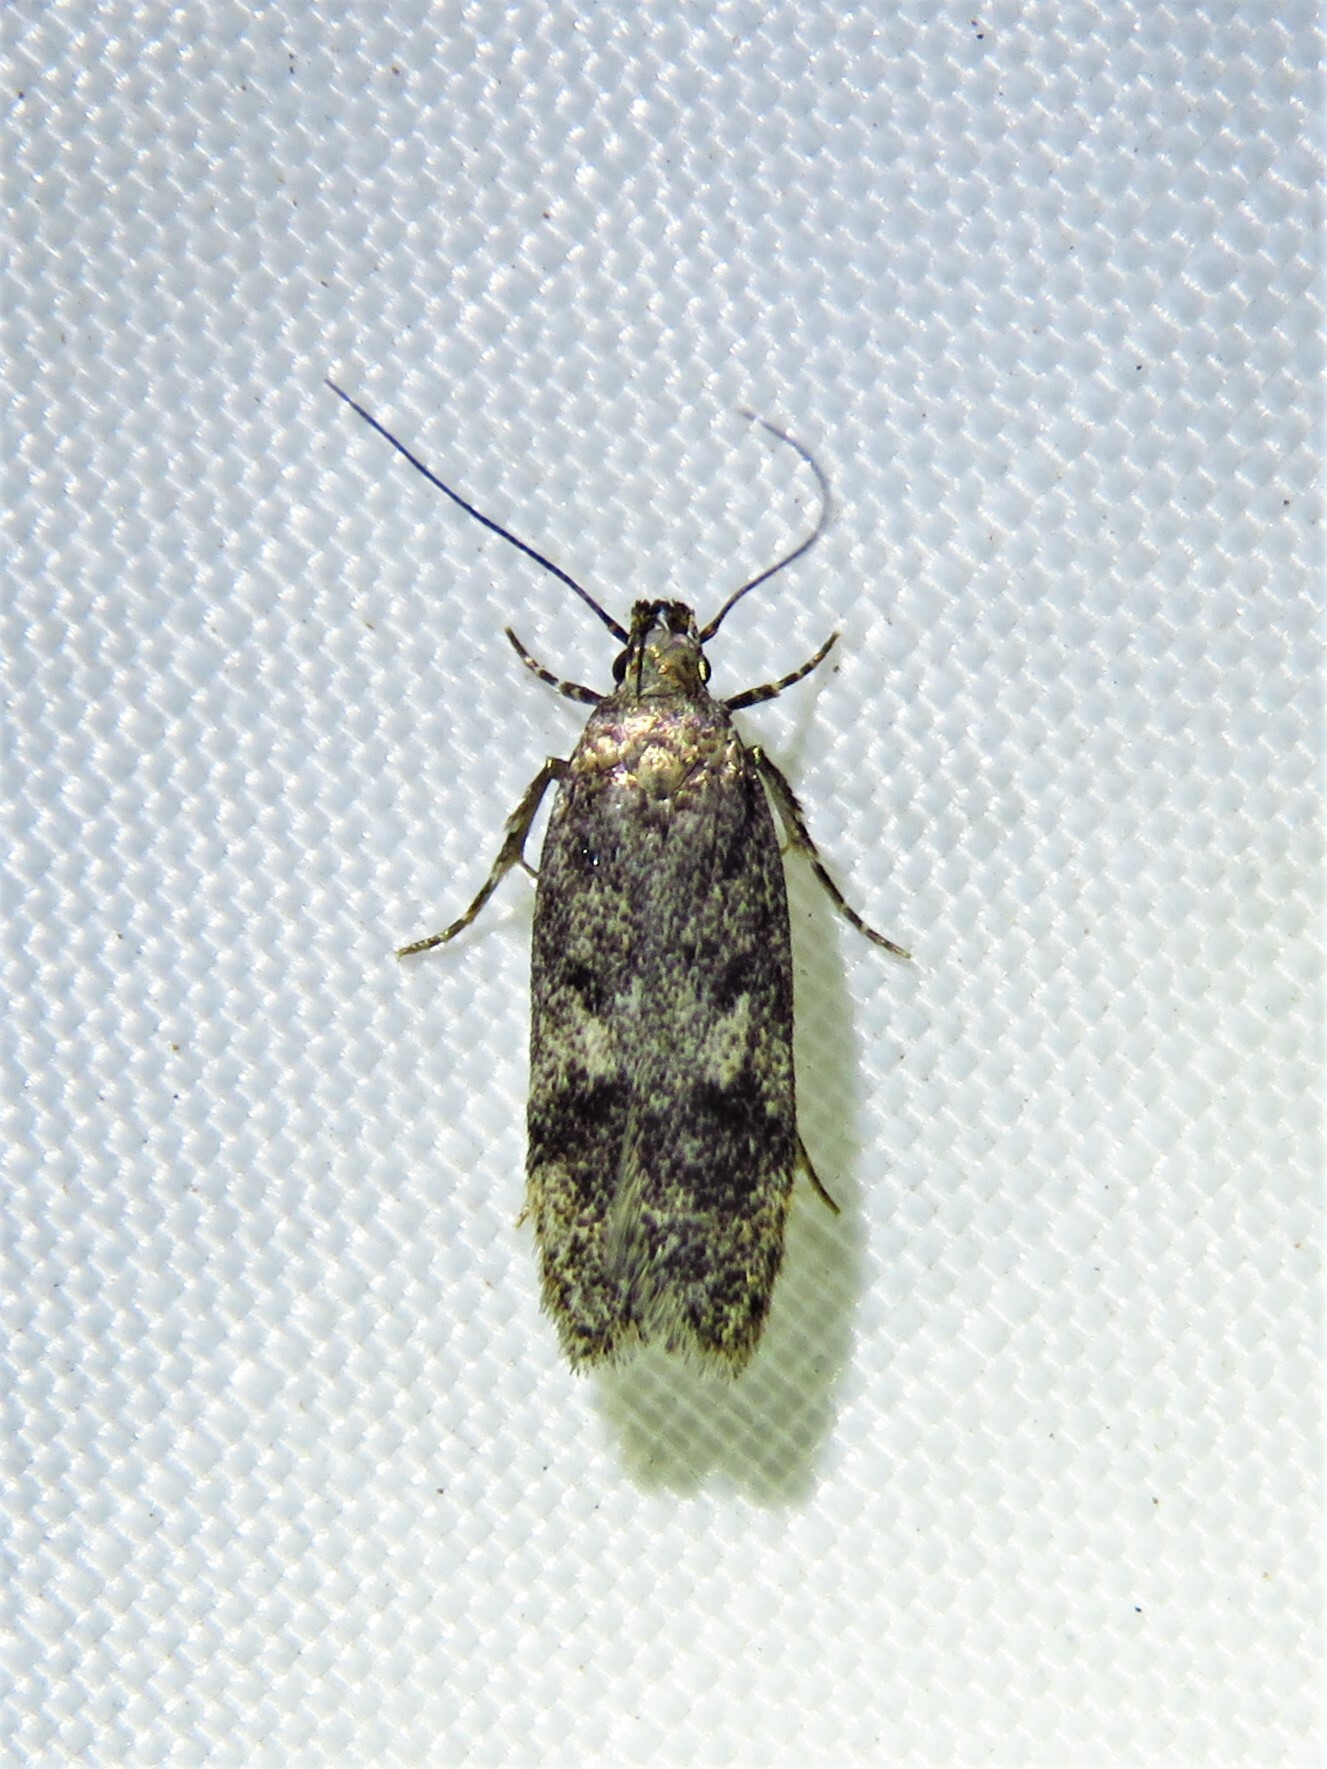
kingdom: Animalia
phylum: Arthropoda
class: Insecta
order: Lepidoptera
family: Gelechiidae
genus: Gelechia
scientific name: Gelechia scotinella
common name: Thicket groundling
